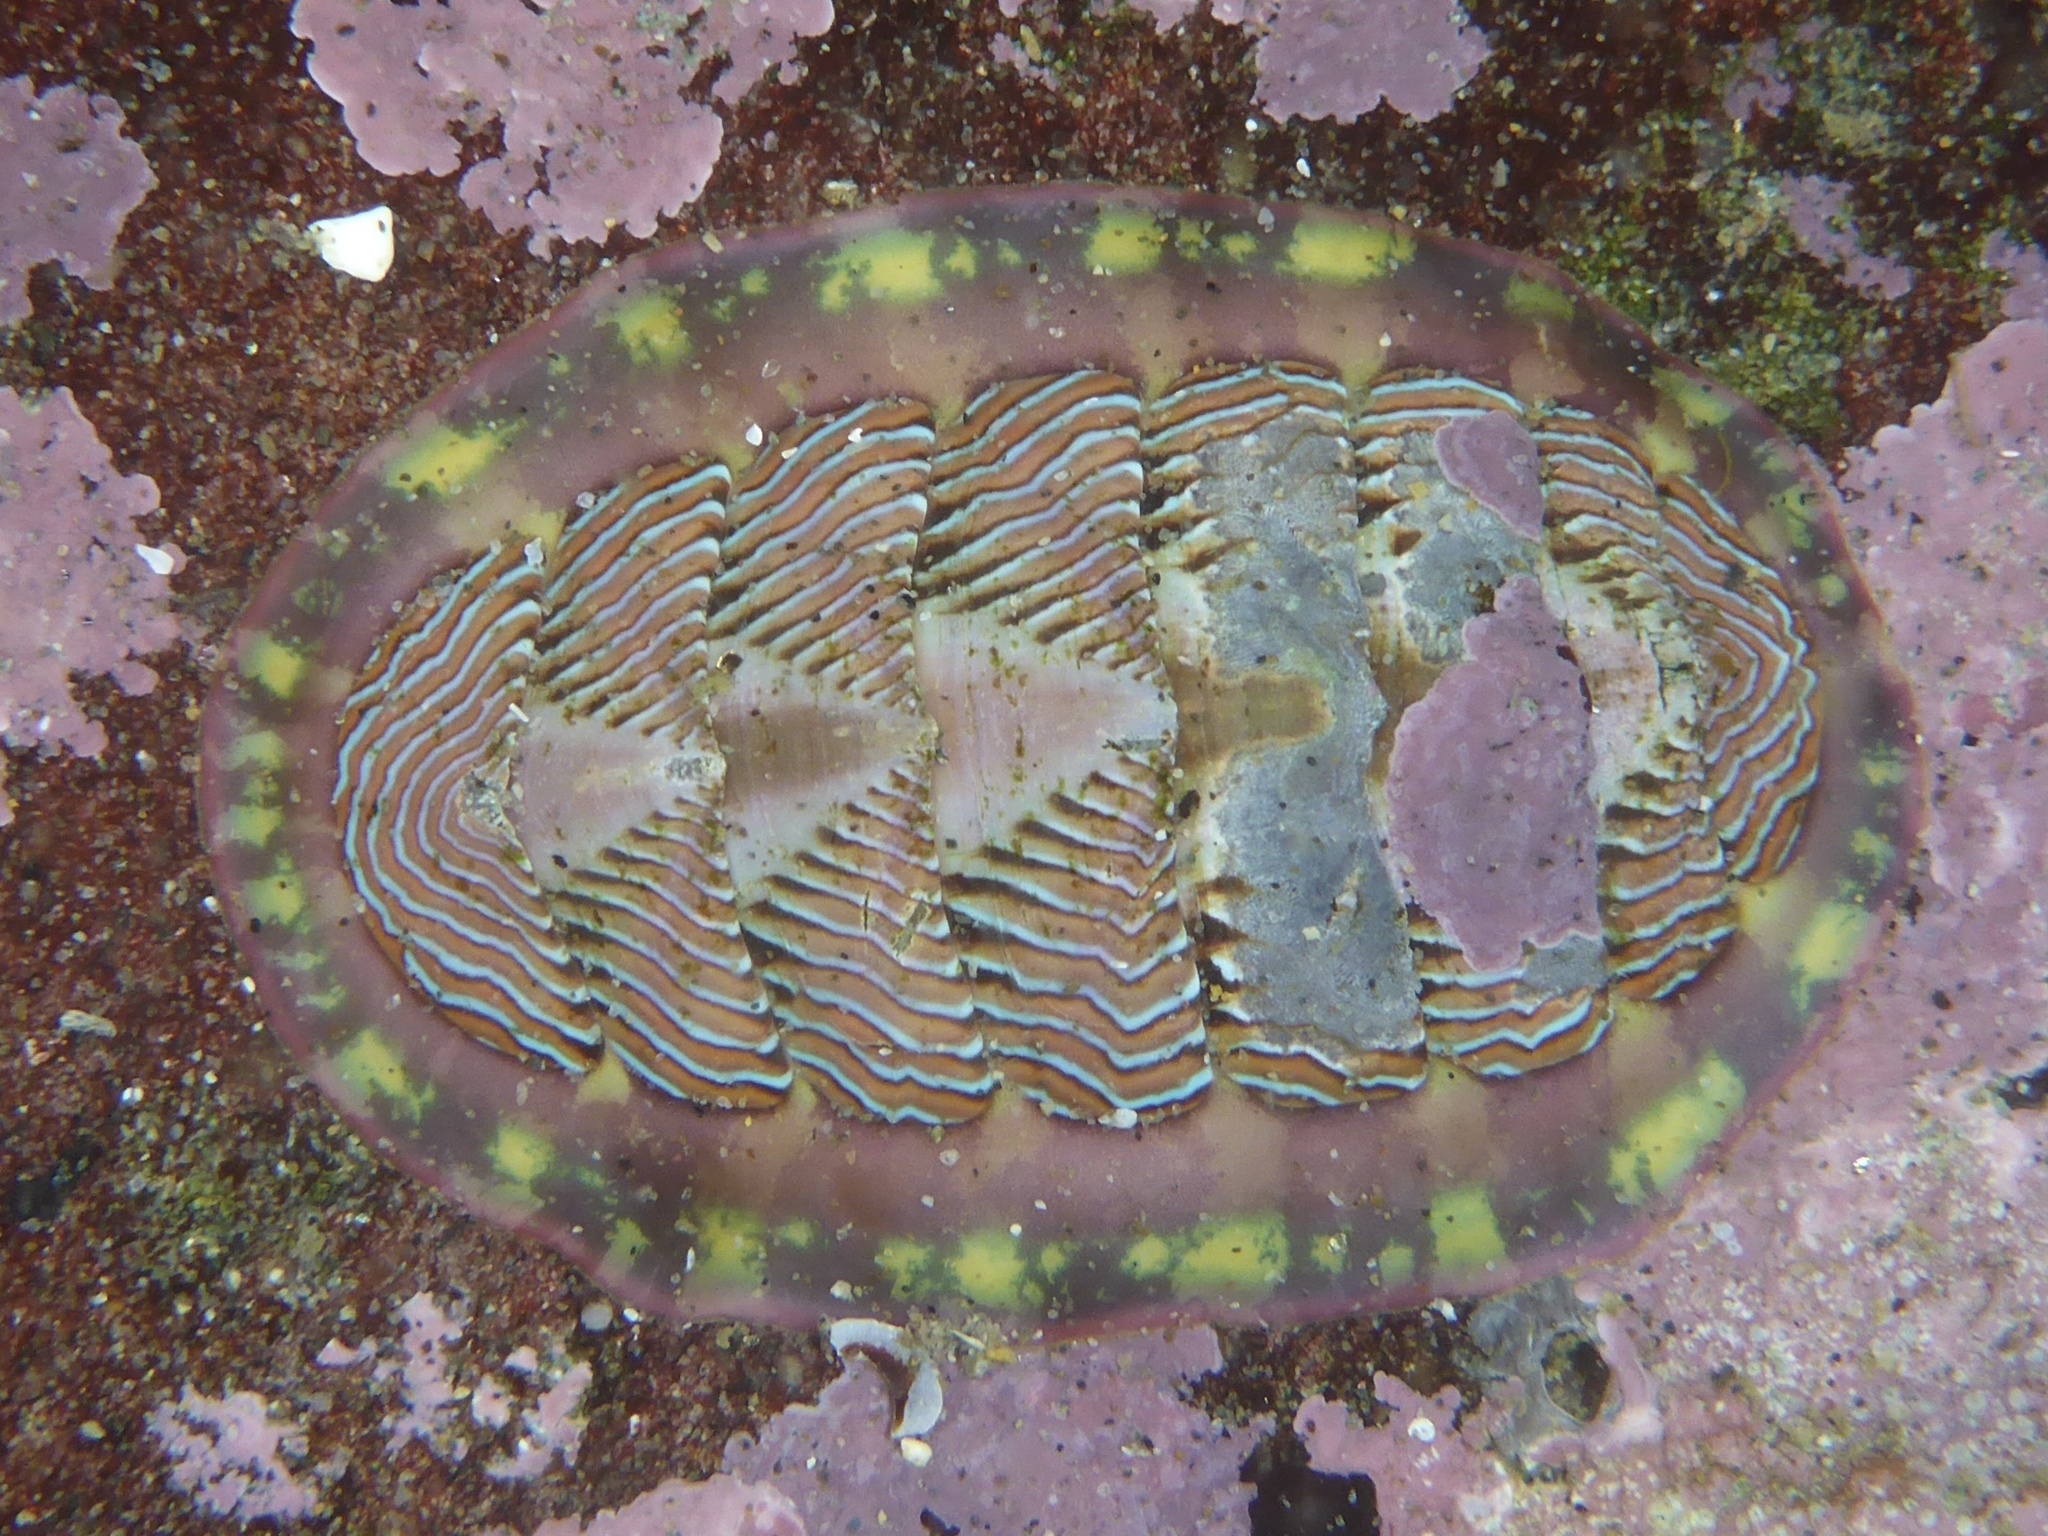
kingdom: Animalia
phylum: Mollusca
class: Polyplacophora
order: Chitonida
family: Tonicellidae
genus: Tonicella
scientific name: Tonicella lineata
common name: Lined chiton
